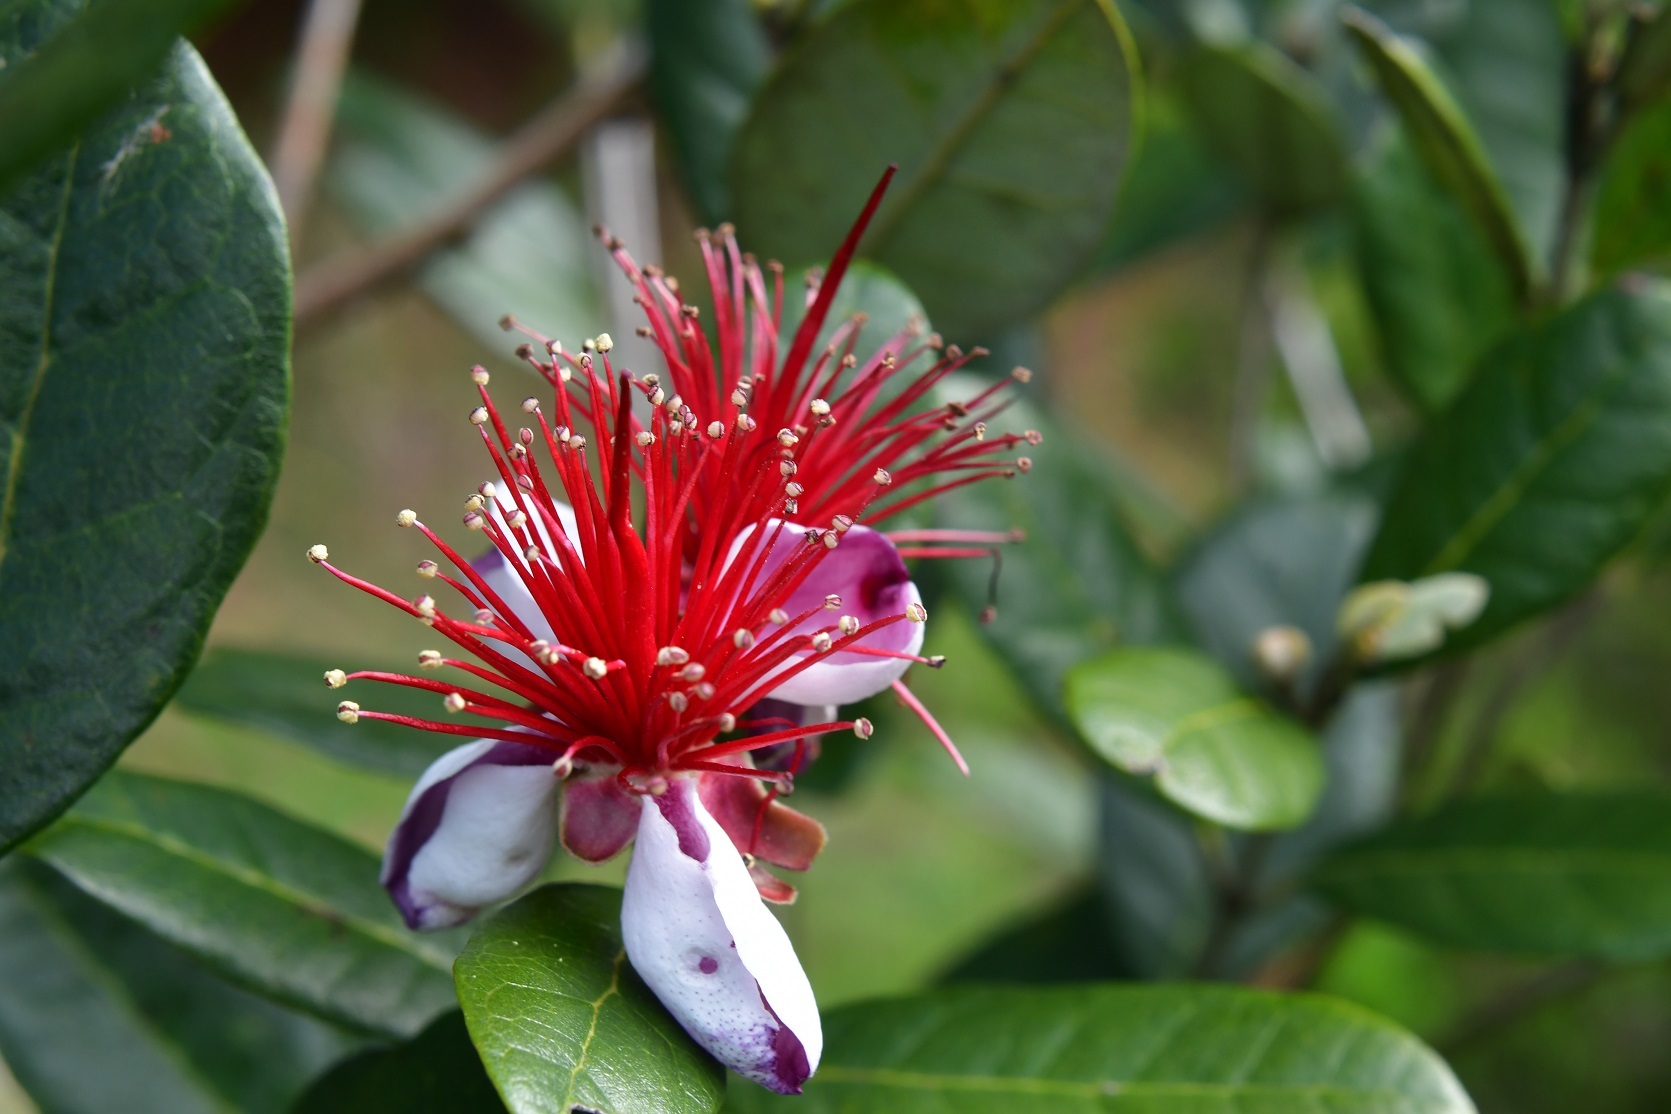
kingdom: Plantae
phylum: Tracheophyta
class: Magnoliopsida
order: Myrtales
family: Myrtaceae
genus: Feijoa
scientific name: Feijoa sellowiana
